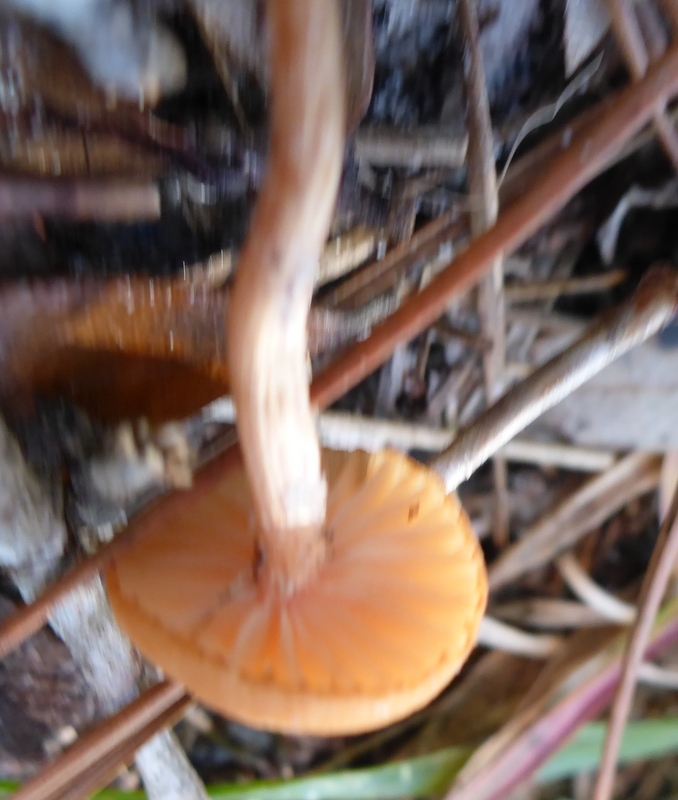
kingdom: Fungi
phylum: Basidiomycota
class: Agaricomycetes
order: Agaricales
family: Hydnangiaceae
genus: Laccaria
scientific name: Laccaria laccata
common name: Deceiver
